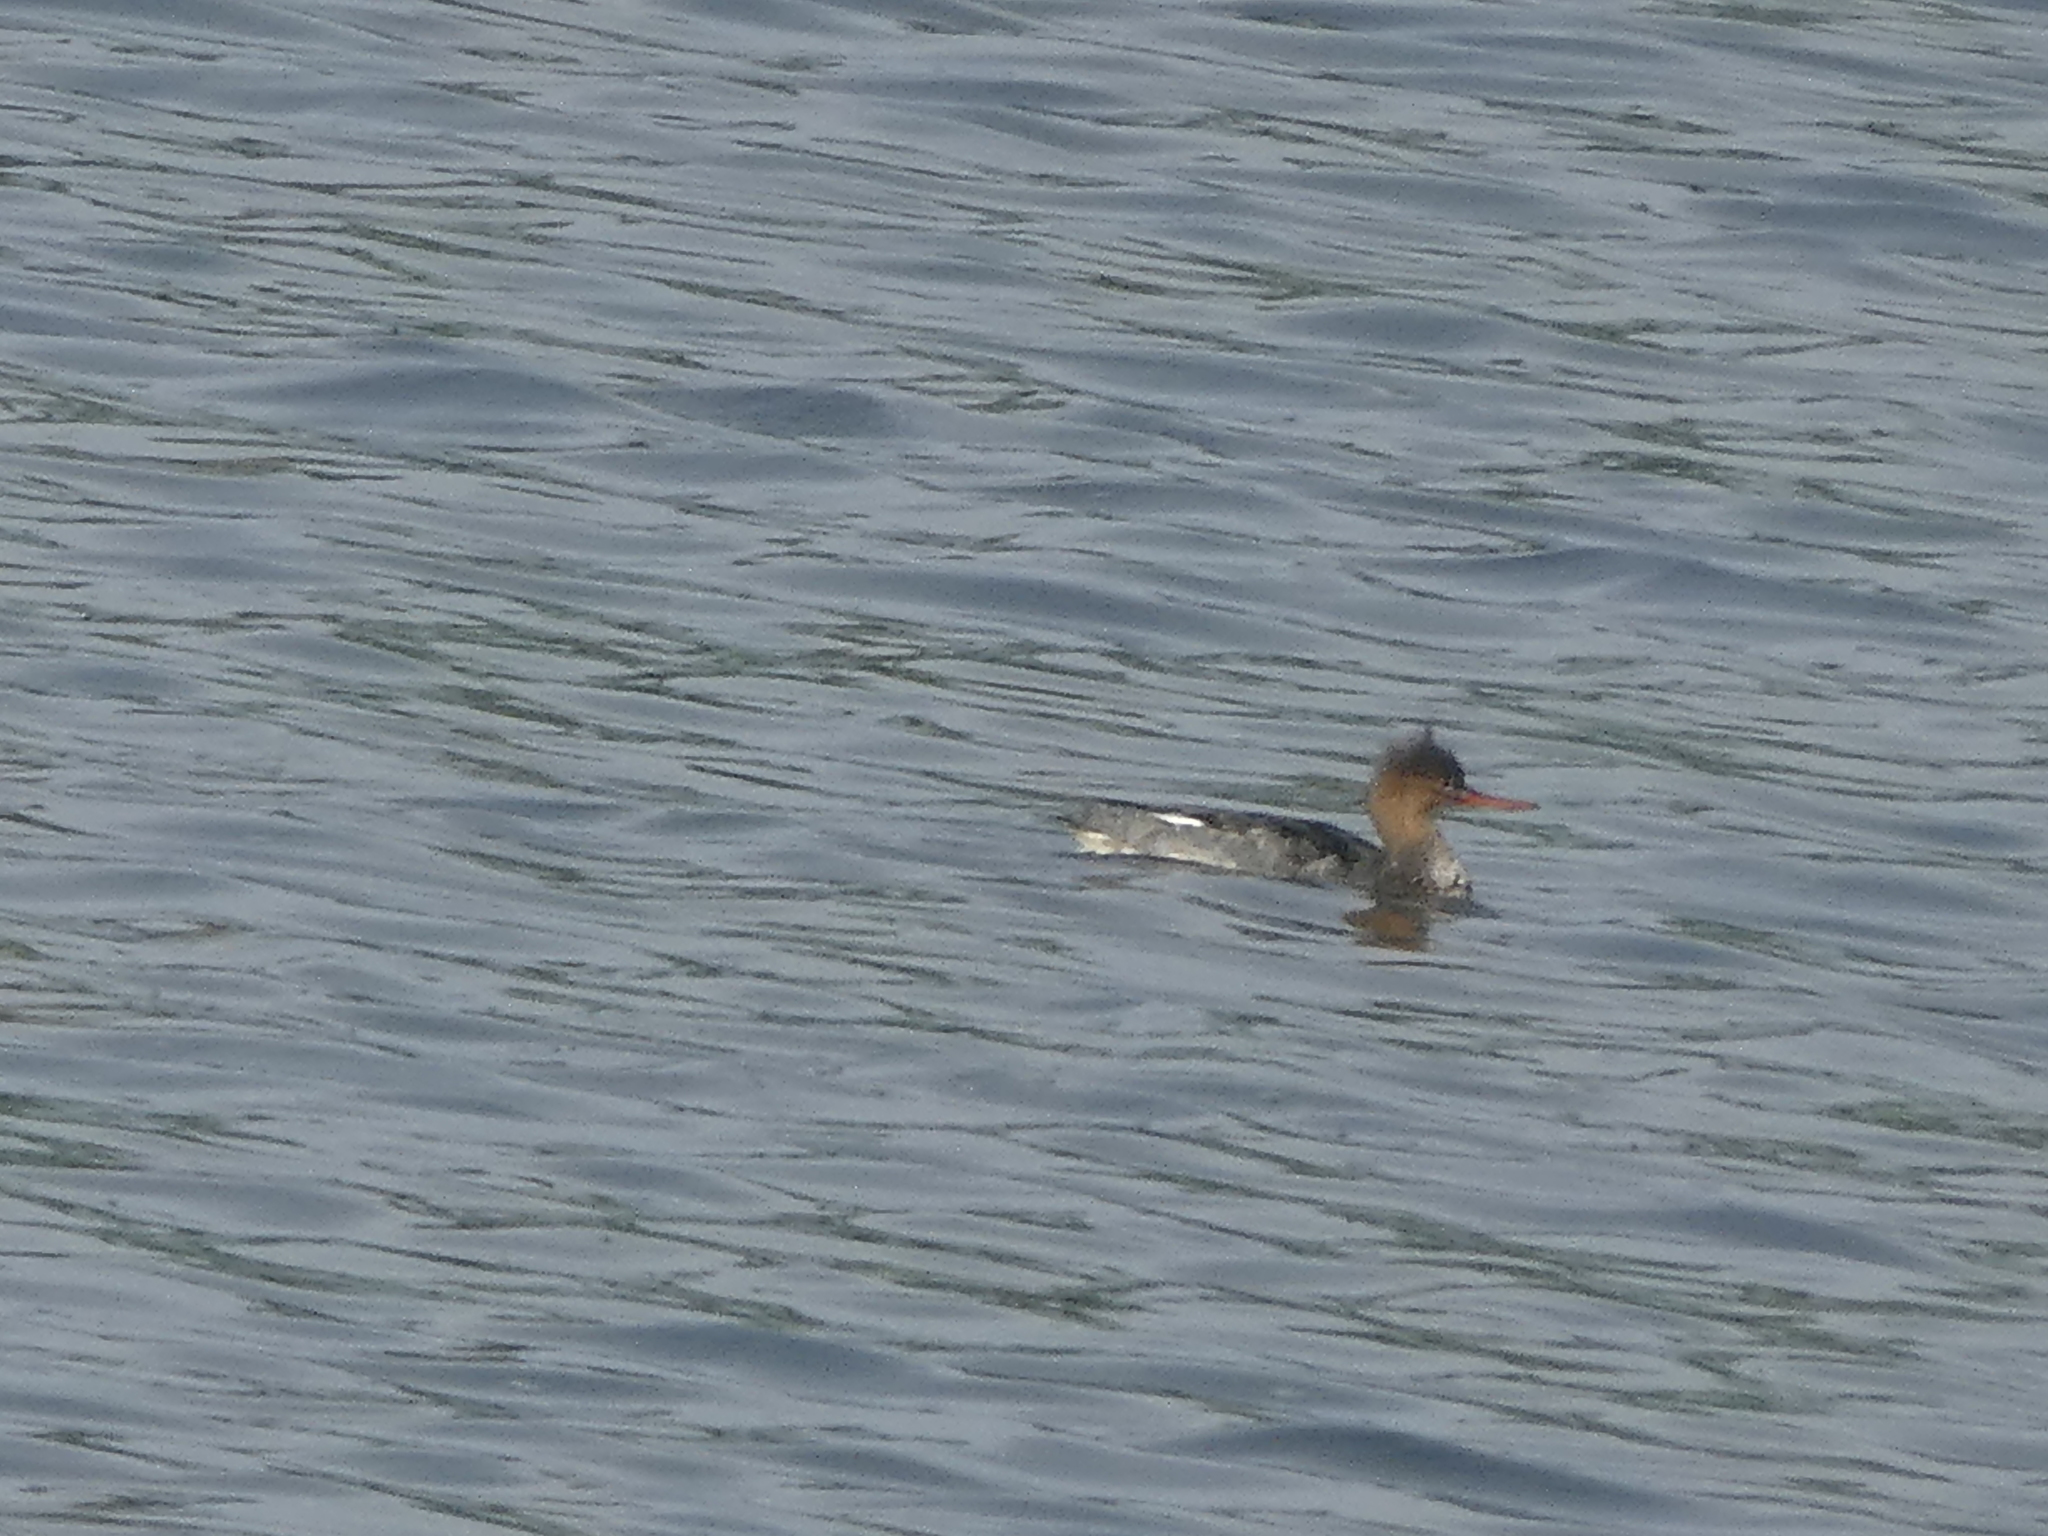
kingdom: Animalia
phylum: Chordata
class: Aves
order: Anseriformes
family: Anatidae
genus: Mergus
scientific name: Mergus serrator
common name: Red-breasted merganser
